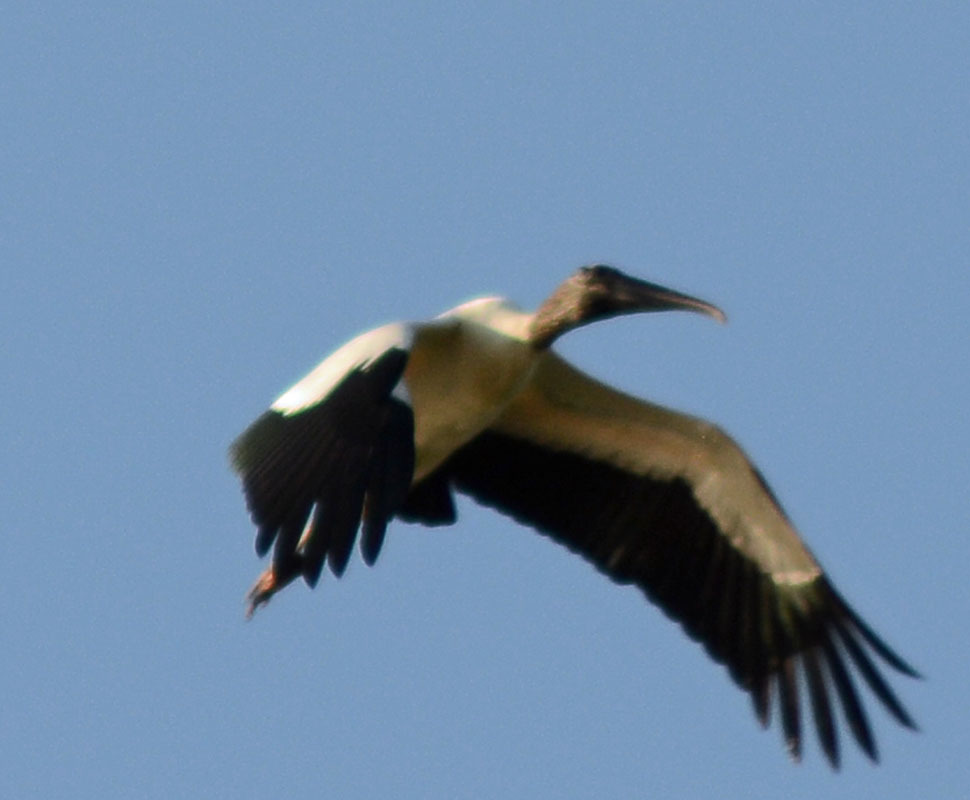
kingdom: Animalia
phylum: Chordata
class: Aves
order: Ciconiiformes
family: Ciconiidae
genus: Mycteria
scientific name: Mycteria americana
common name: Wood stork
